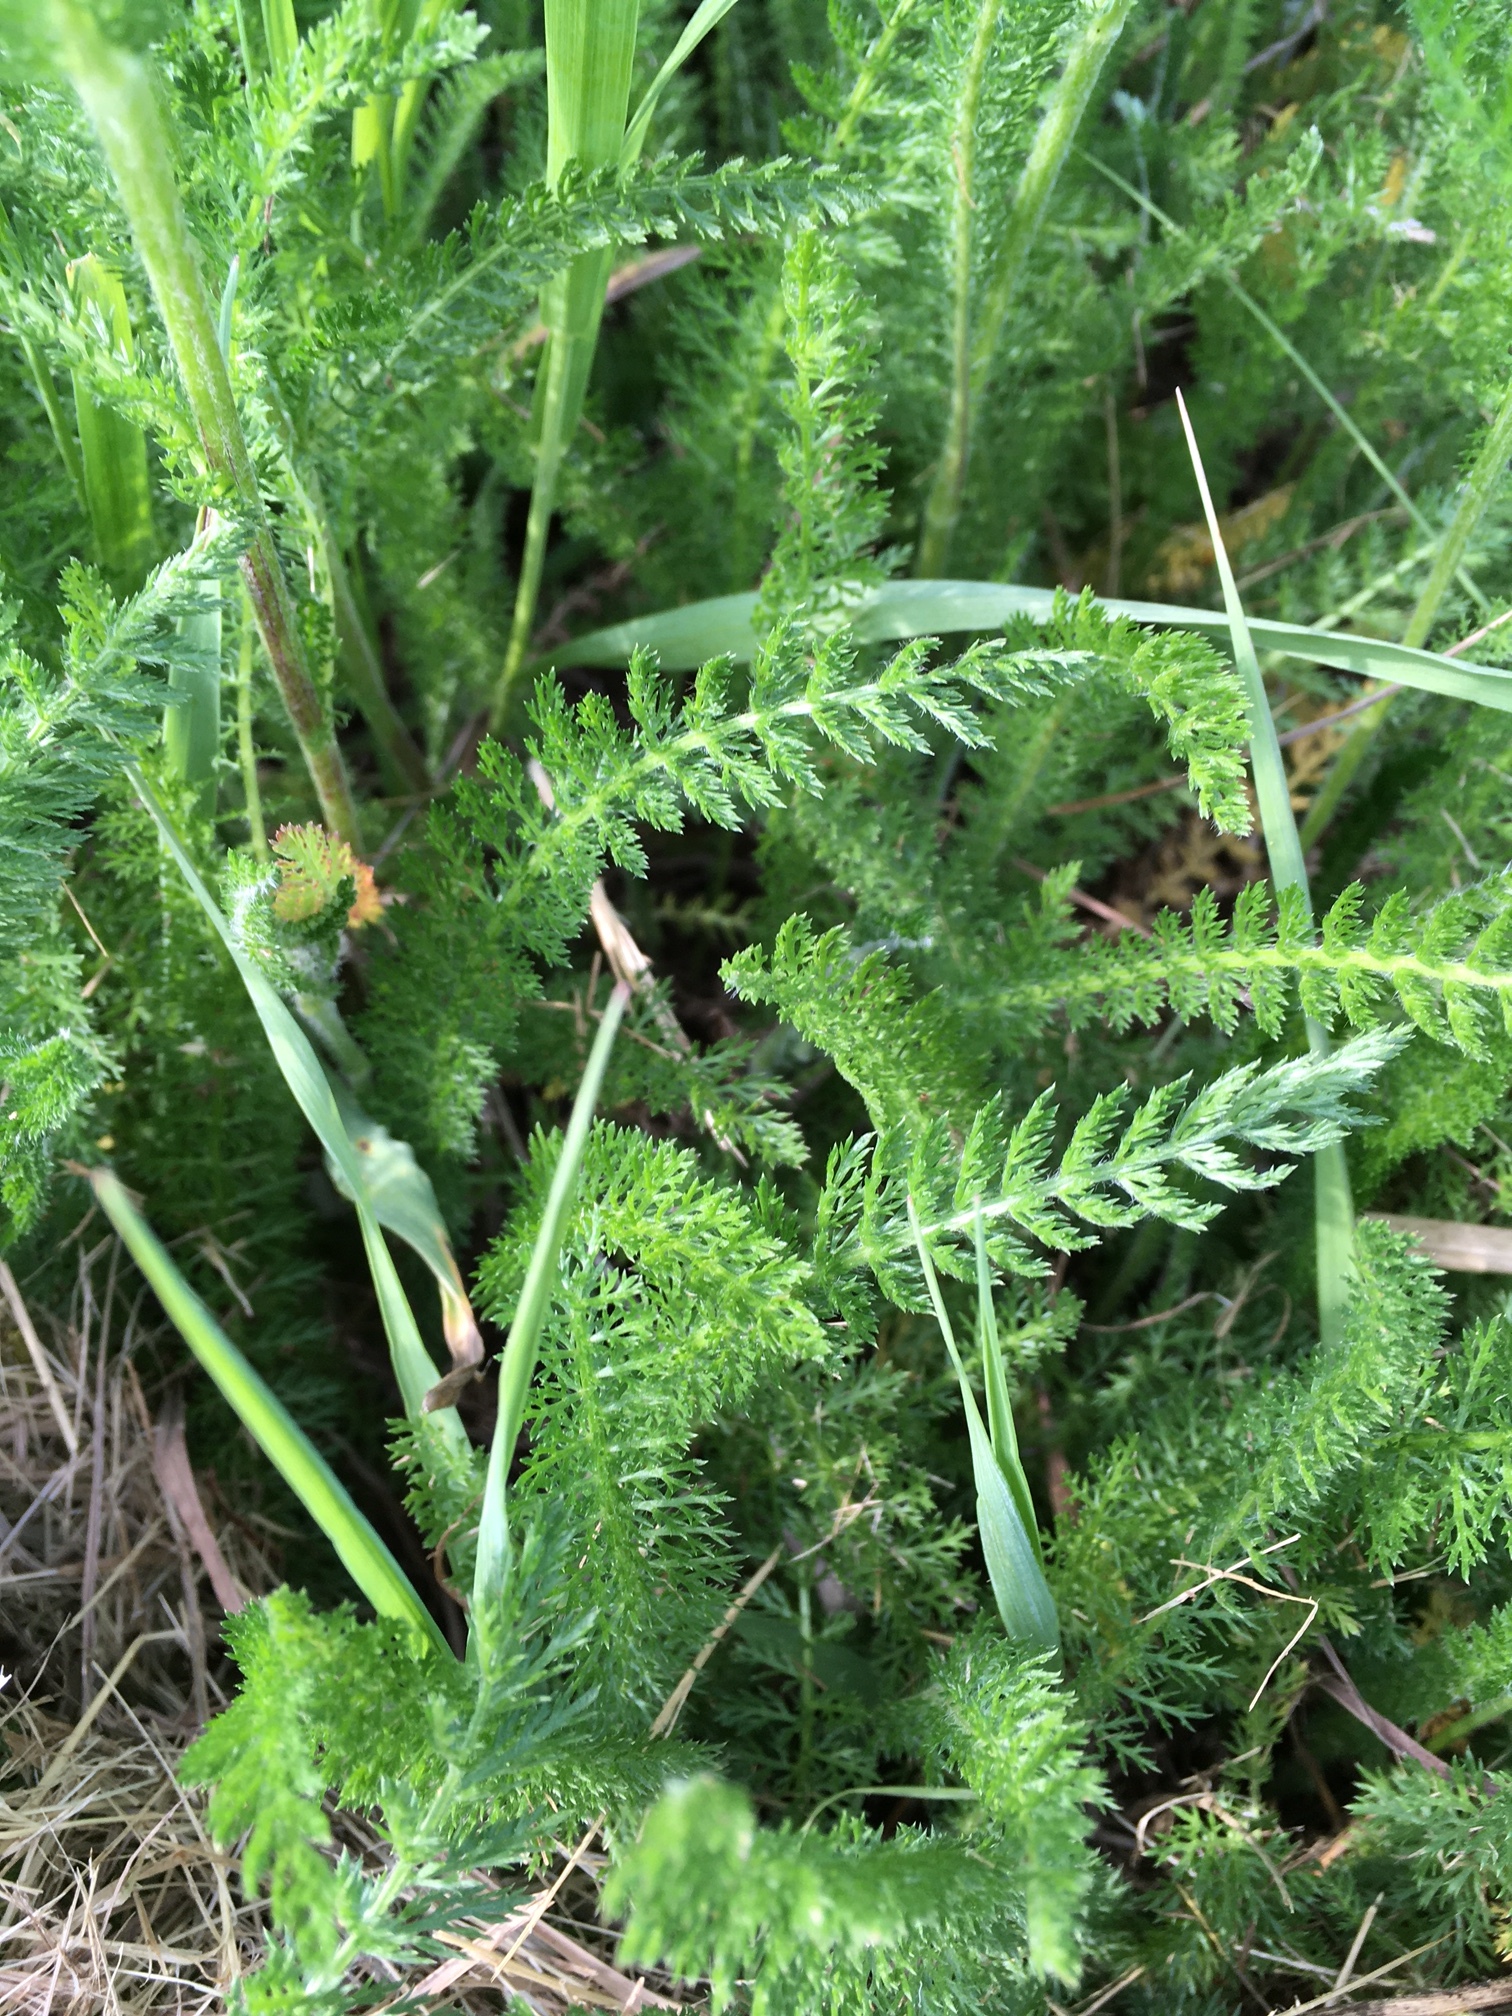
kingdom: Plantae
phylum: Tracheophyta
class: Magnoliopsida
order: Asterales
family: Asteraceae
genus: Achillea
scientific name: Achillea millefolium
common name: Yarrow
